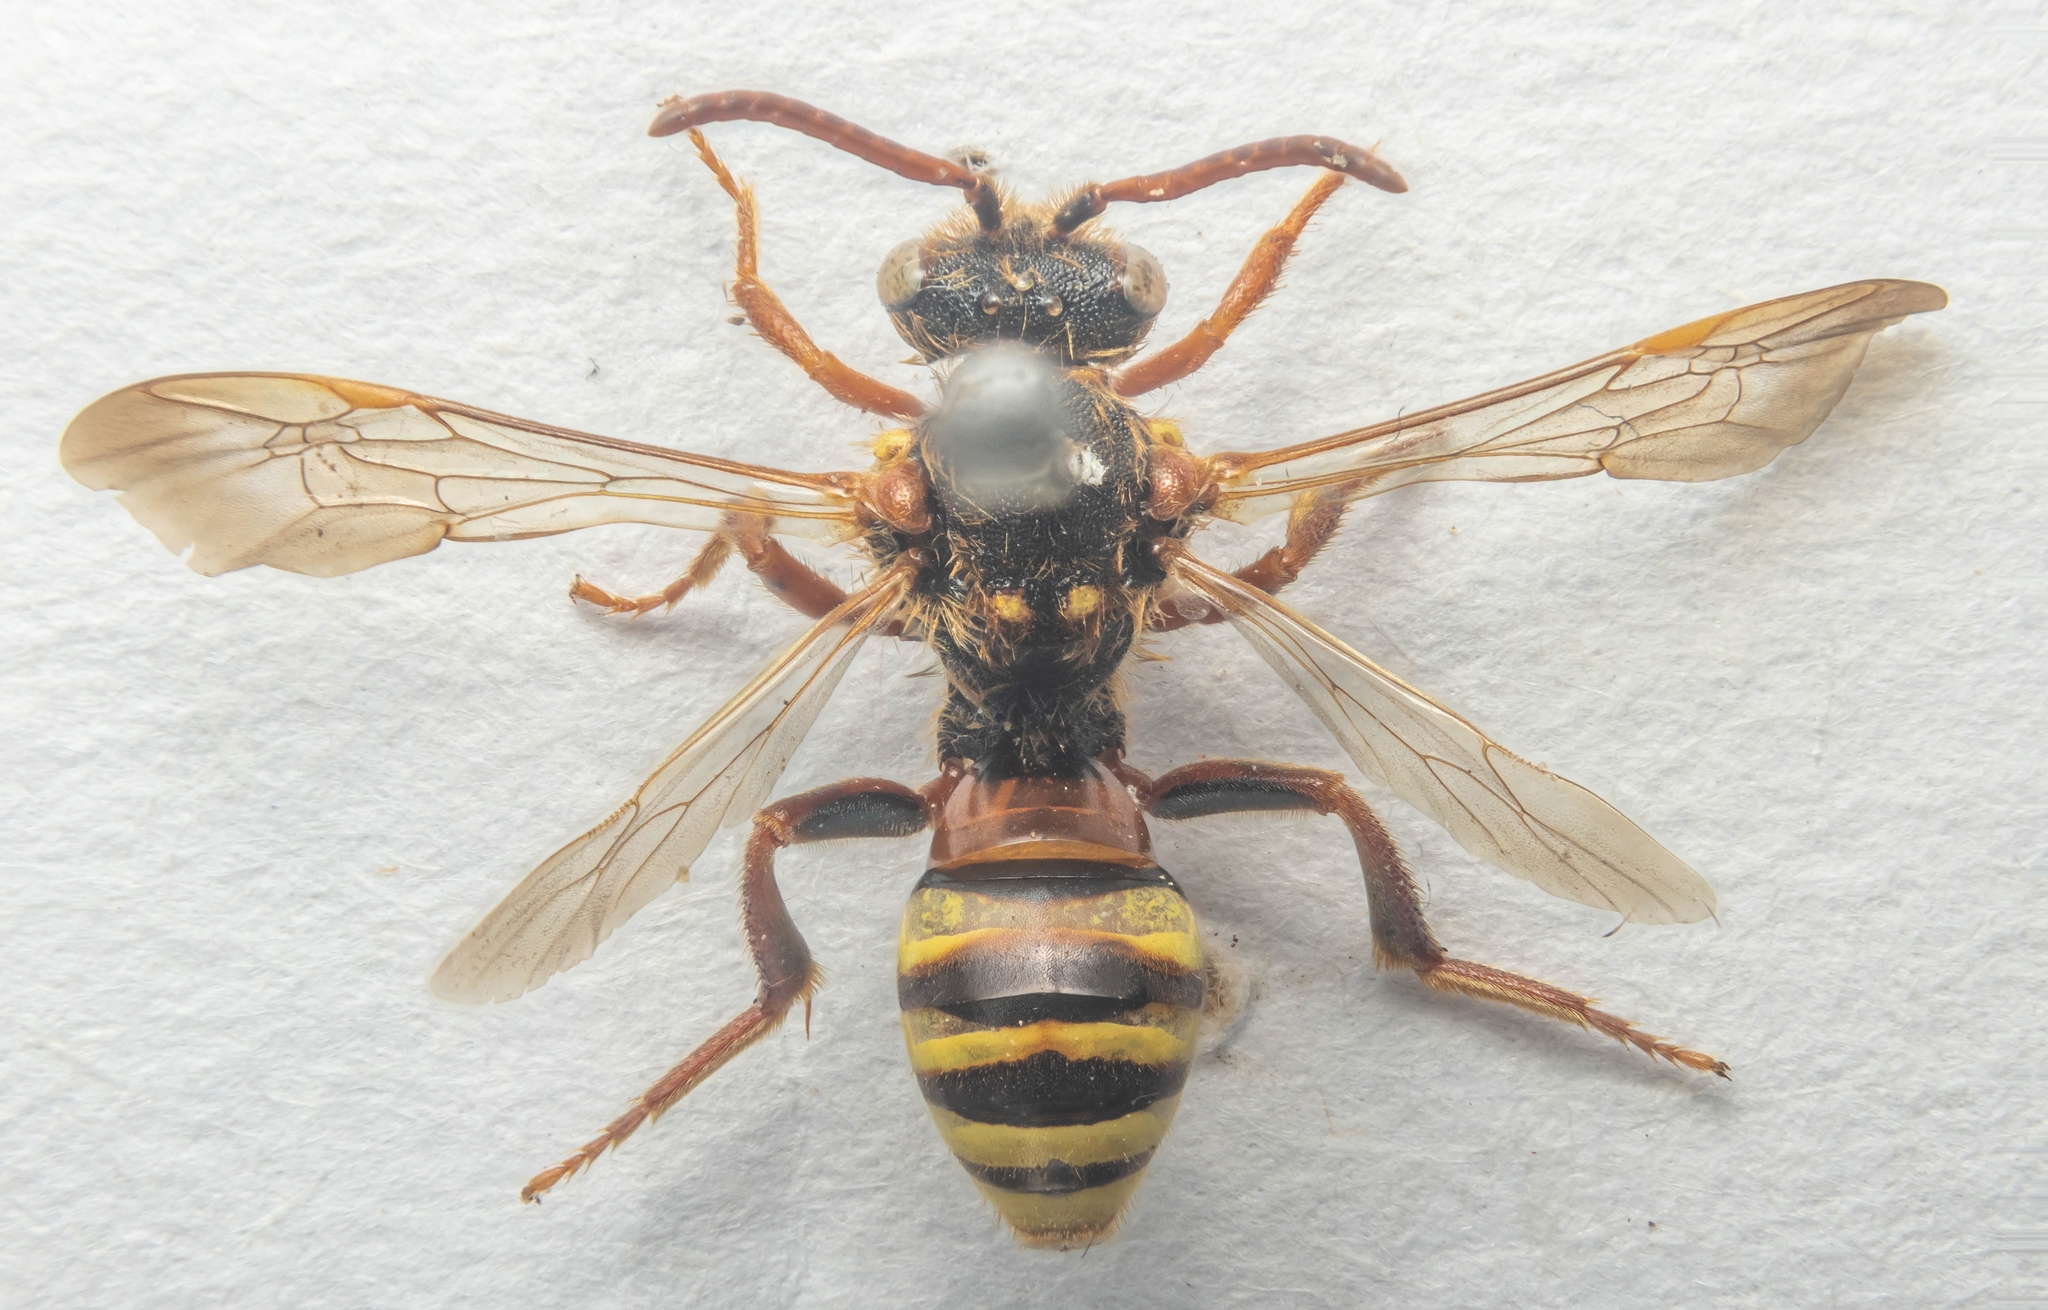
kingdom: Animalia
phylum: Arthropoda
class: Insecta
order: Hymenoptera
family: Apidae
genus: Nomada
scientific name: Nomada lathburiana
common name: Lathbury's nomad bee
